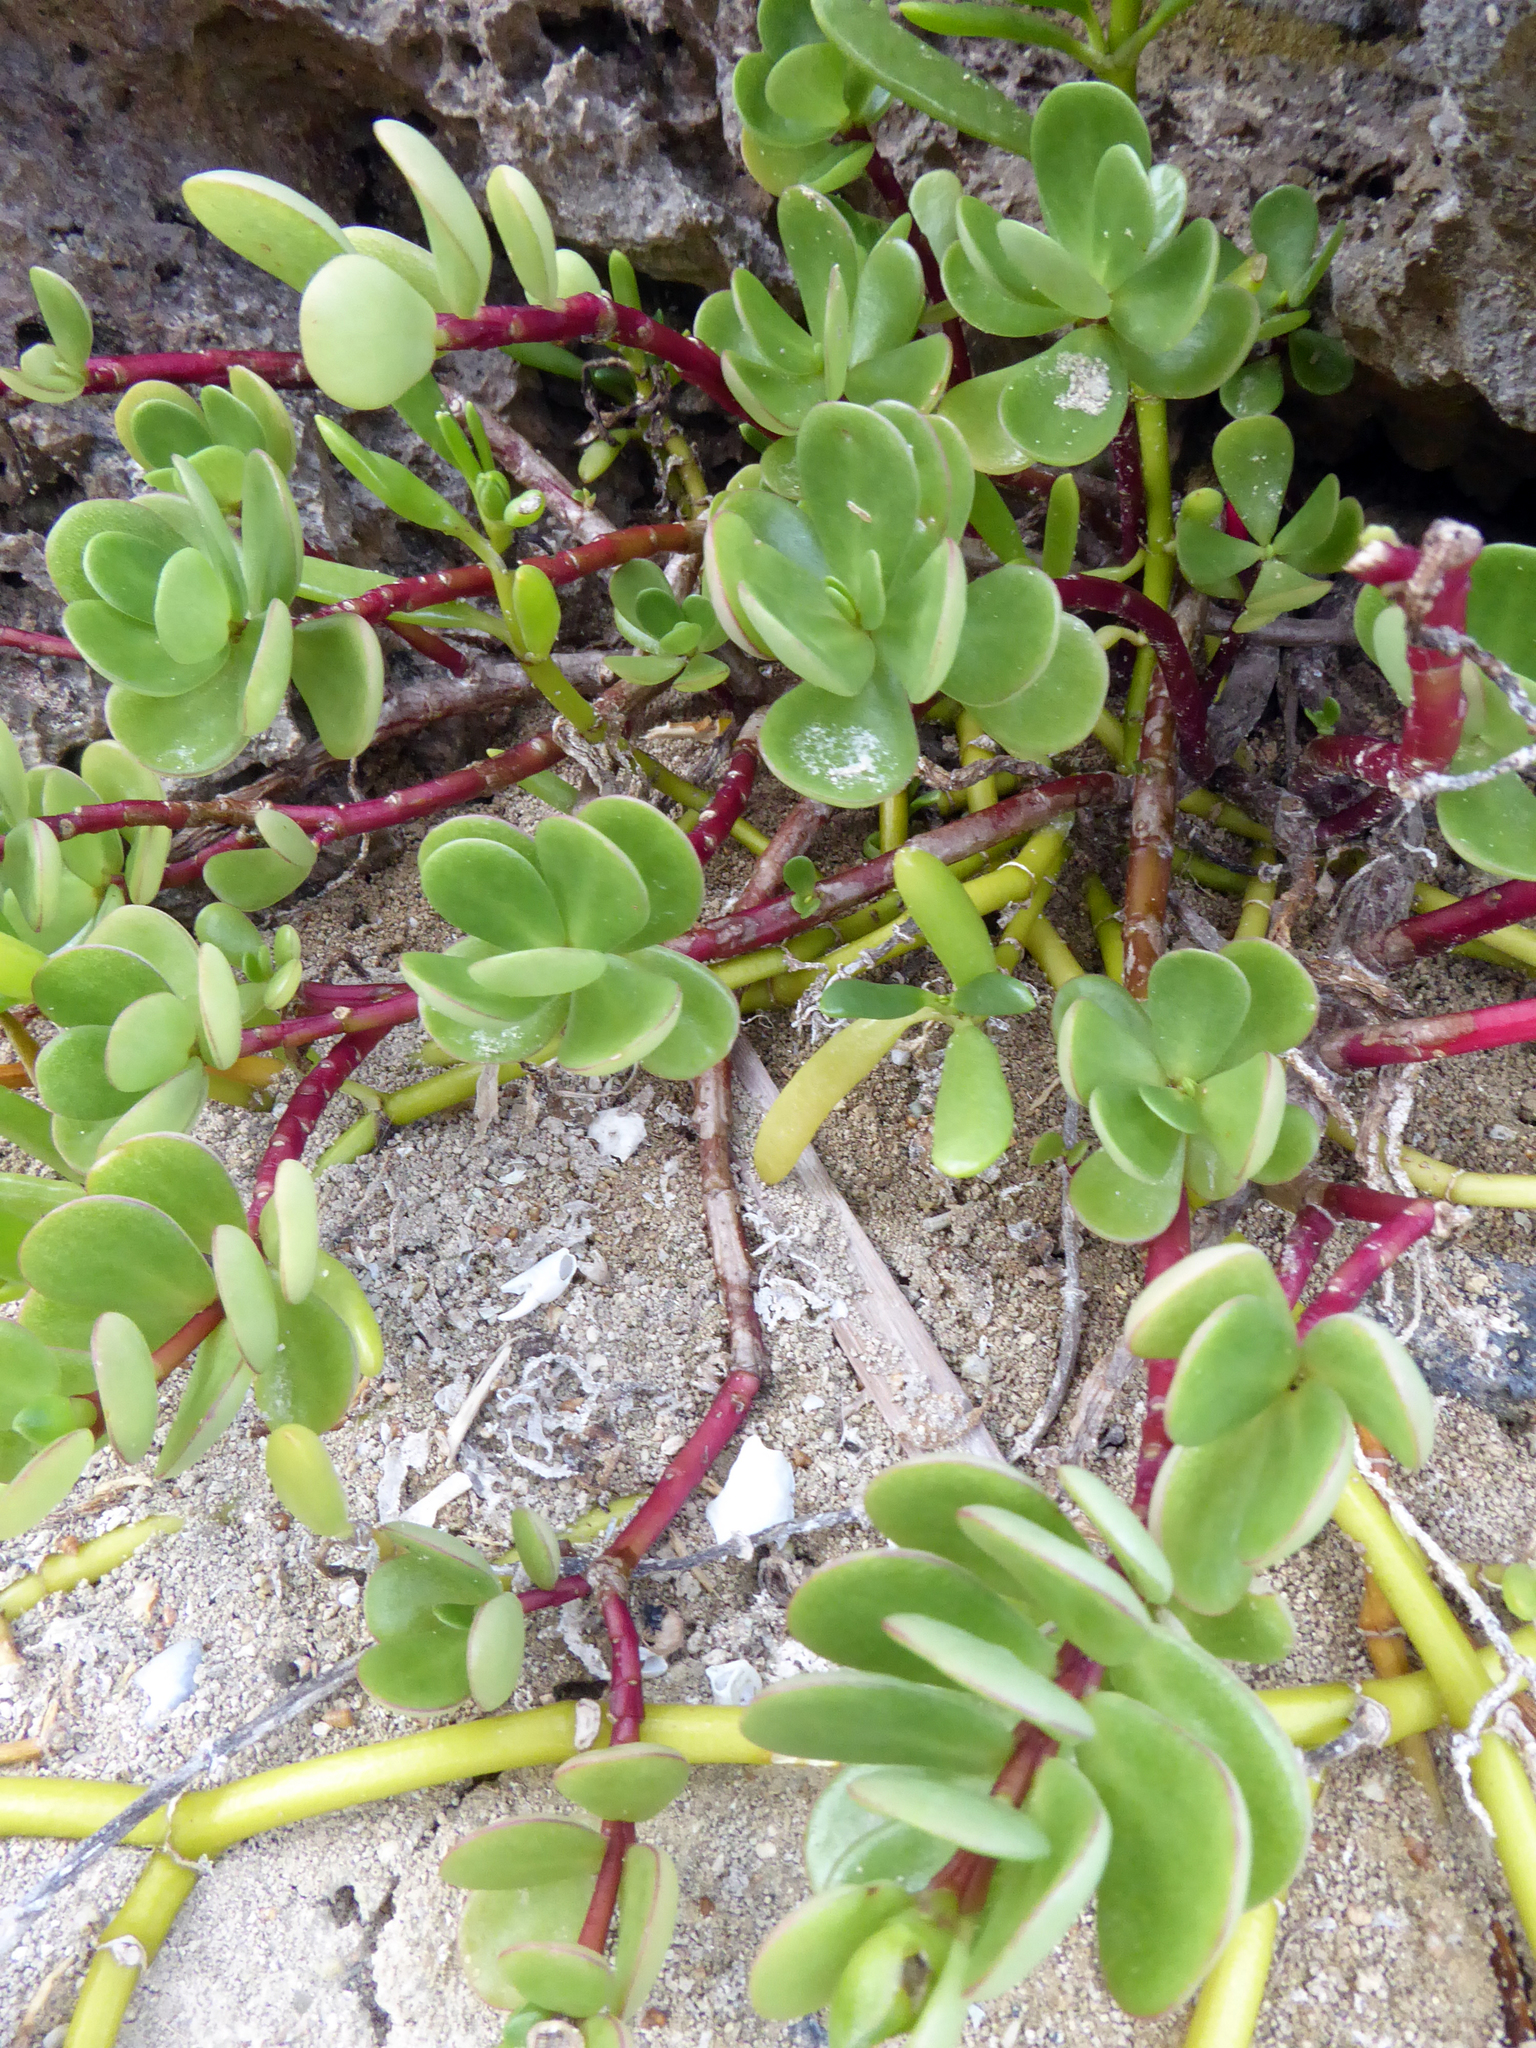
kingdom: Plantae
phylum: Tracheophyta
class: Magnoliopsida
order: Caryophyllales
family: Portulacaceae
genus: Portulaca
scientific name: Portulaca lutea
